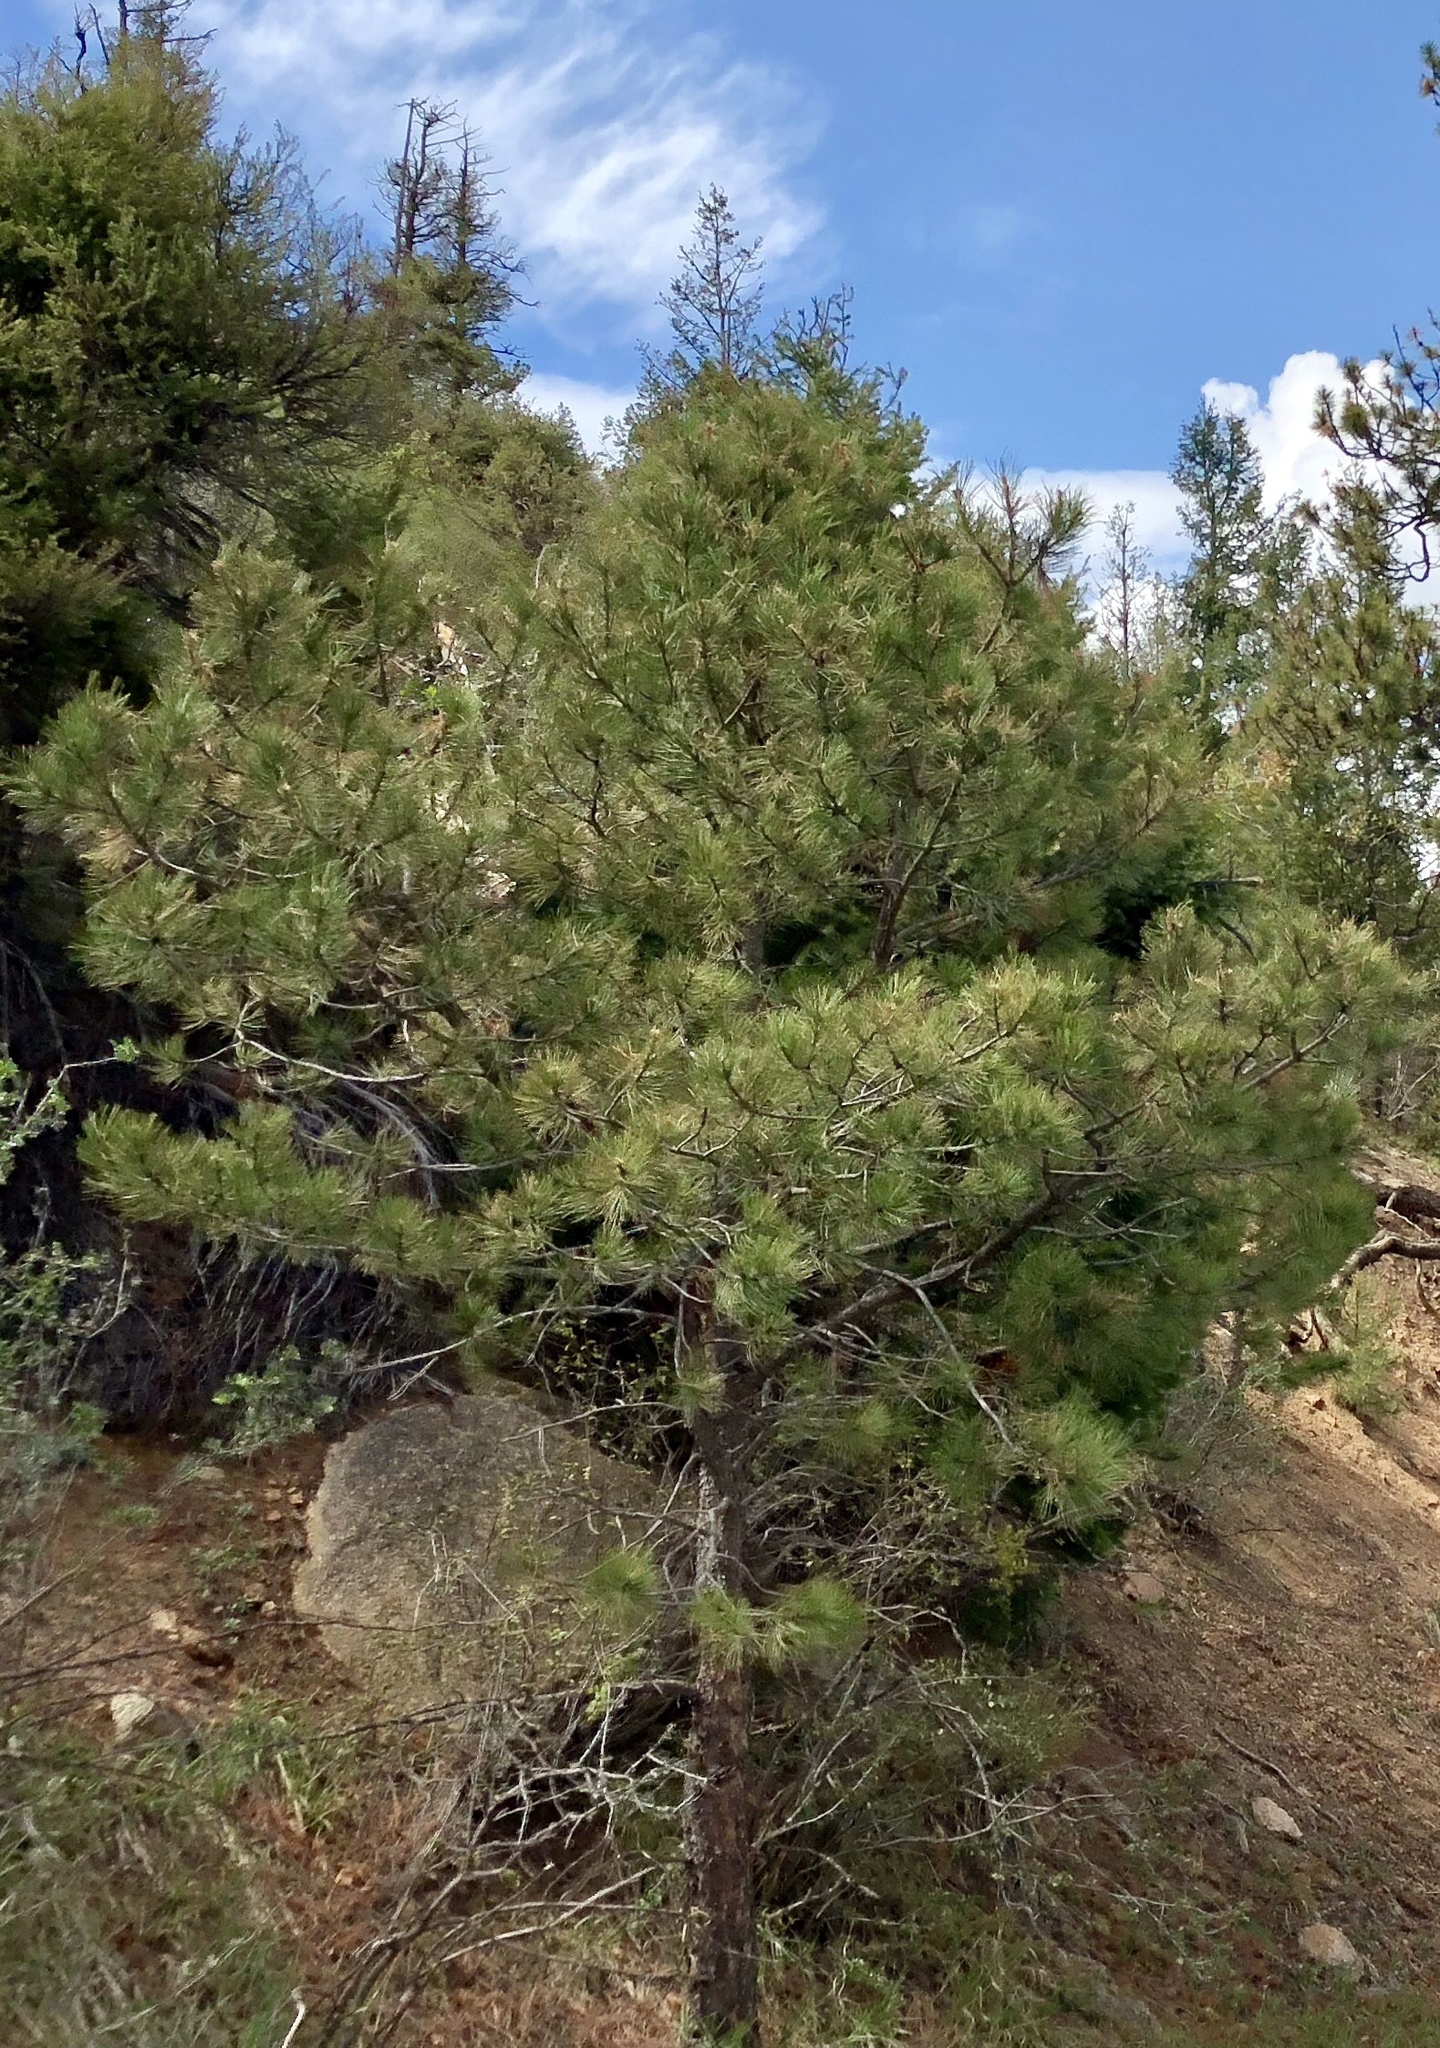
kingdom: Plantae
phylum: Tracheophyta
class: Pinopsida
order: Pinales
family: Pinaceae
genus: Pinus
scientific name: Pinus ponderosa
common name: Western yellow-pine
